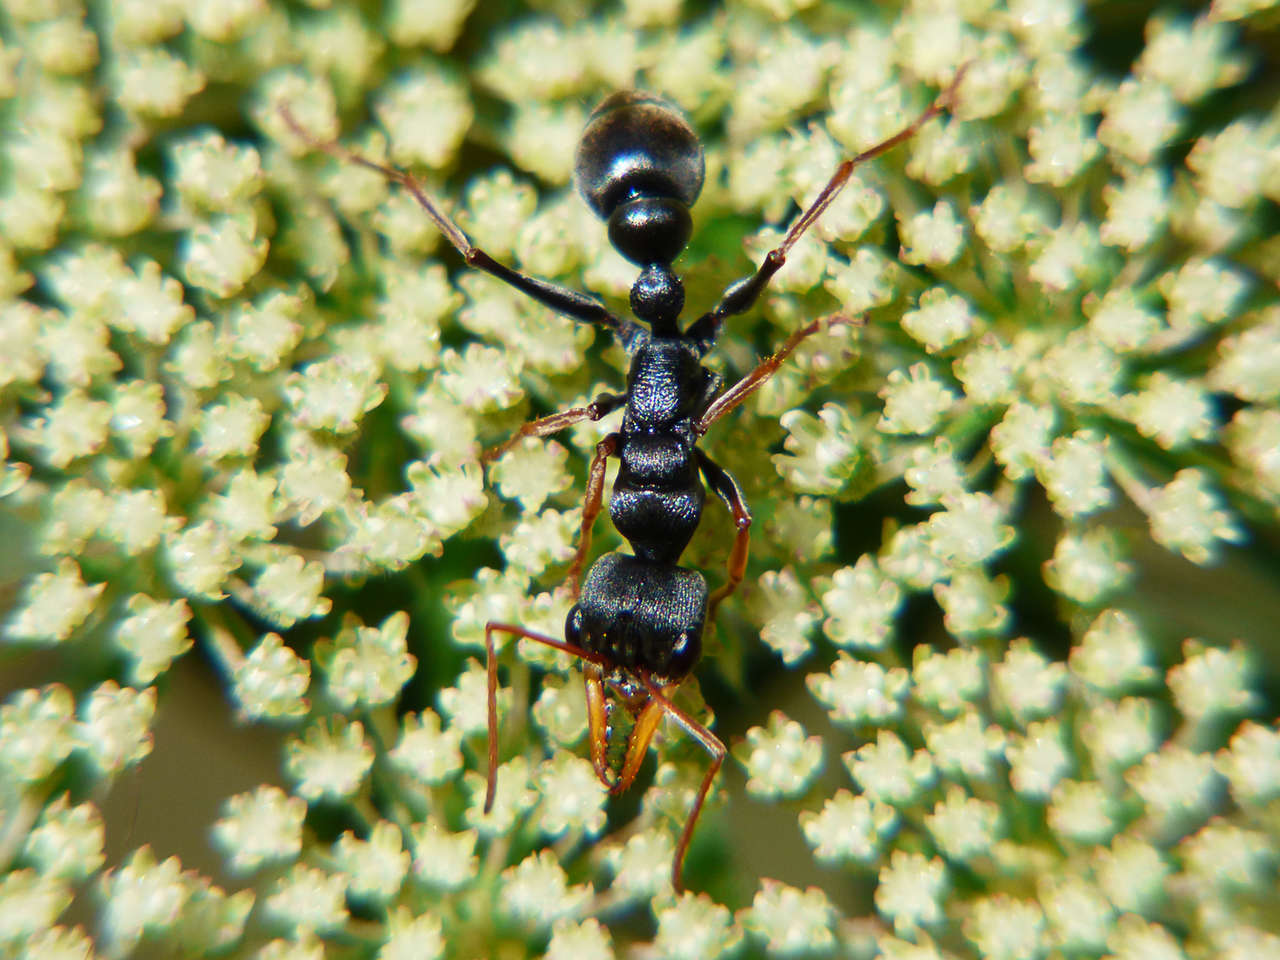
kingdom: Animalia
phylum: Arthropoda
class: Insecta
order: Hymenoptera
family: Formicidae
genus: Myrmecia
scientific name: Myrmecia pilosula
